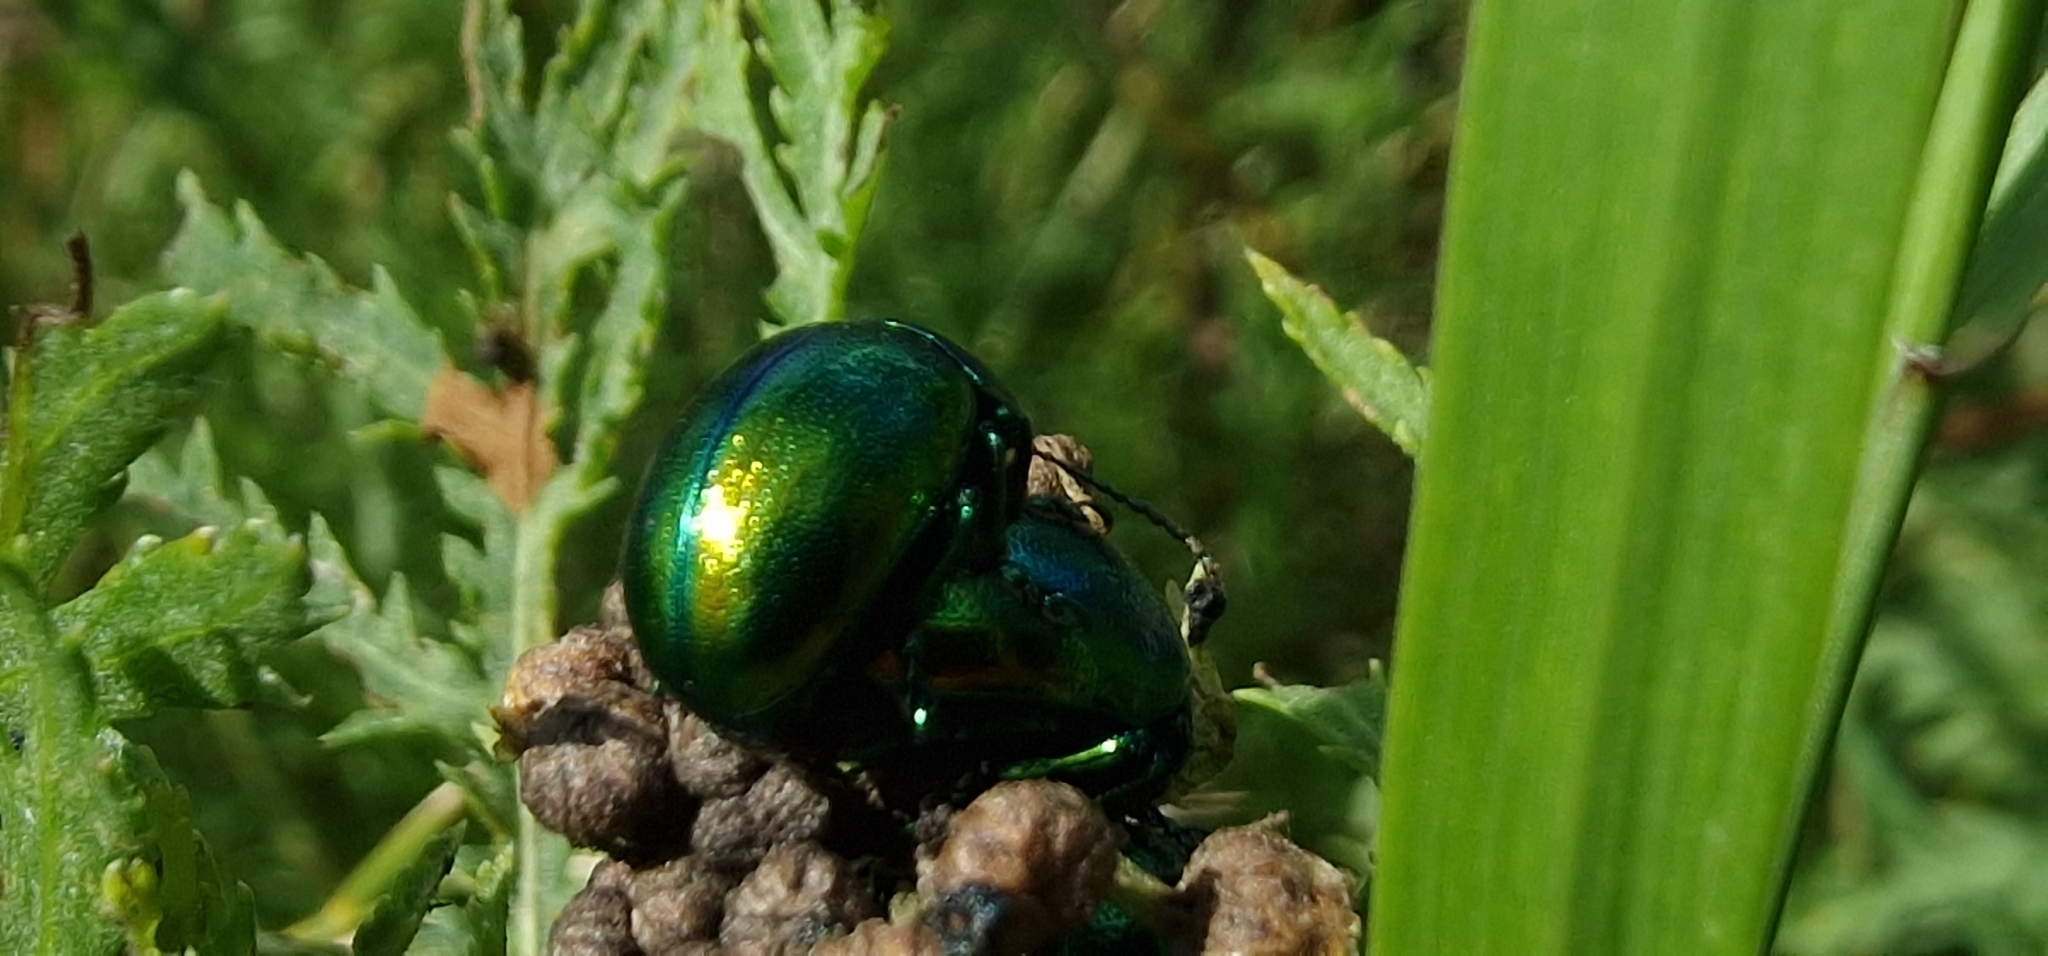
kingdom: Animalia
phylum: Arthropoda
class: Insecta
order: Coleoptera
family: Chrysomelidae
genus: Chrysolina
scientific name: Chrysolina graminis
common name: Tansey beetle
